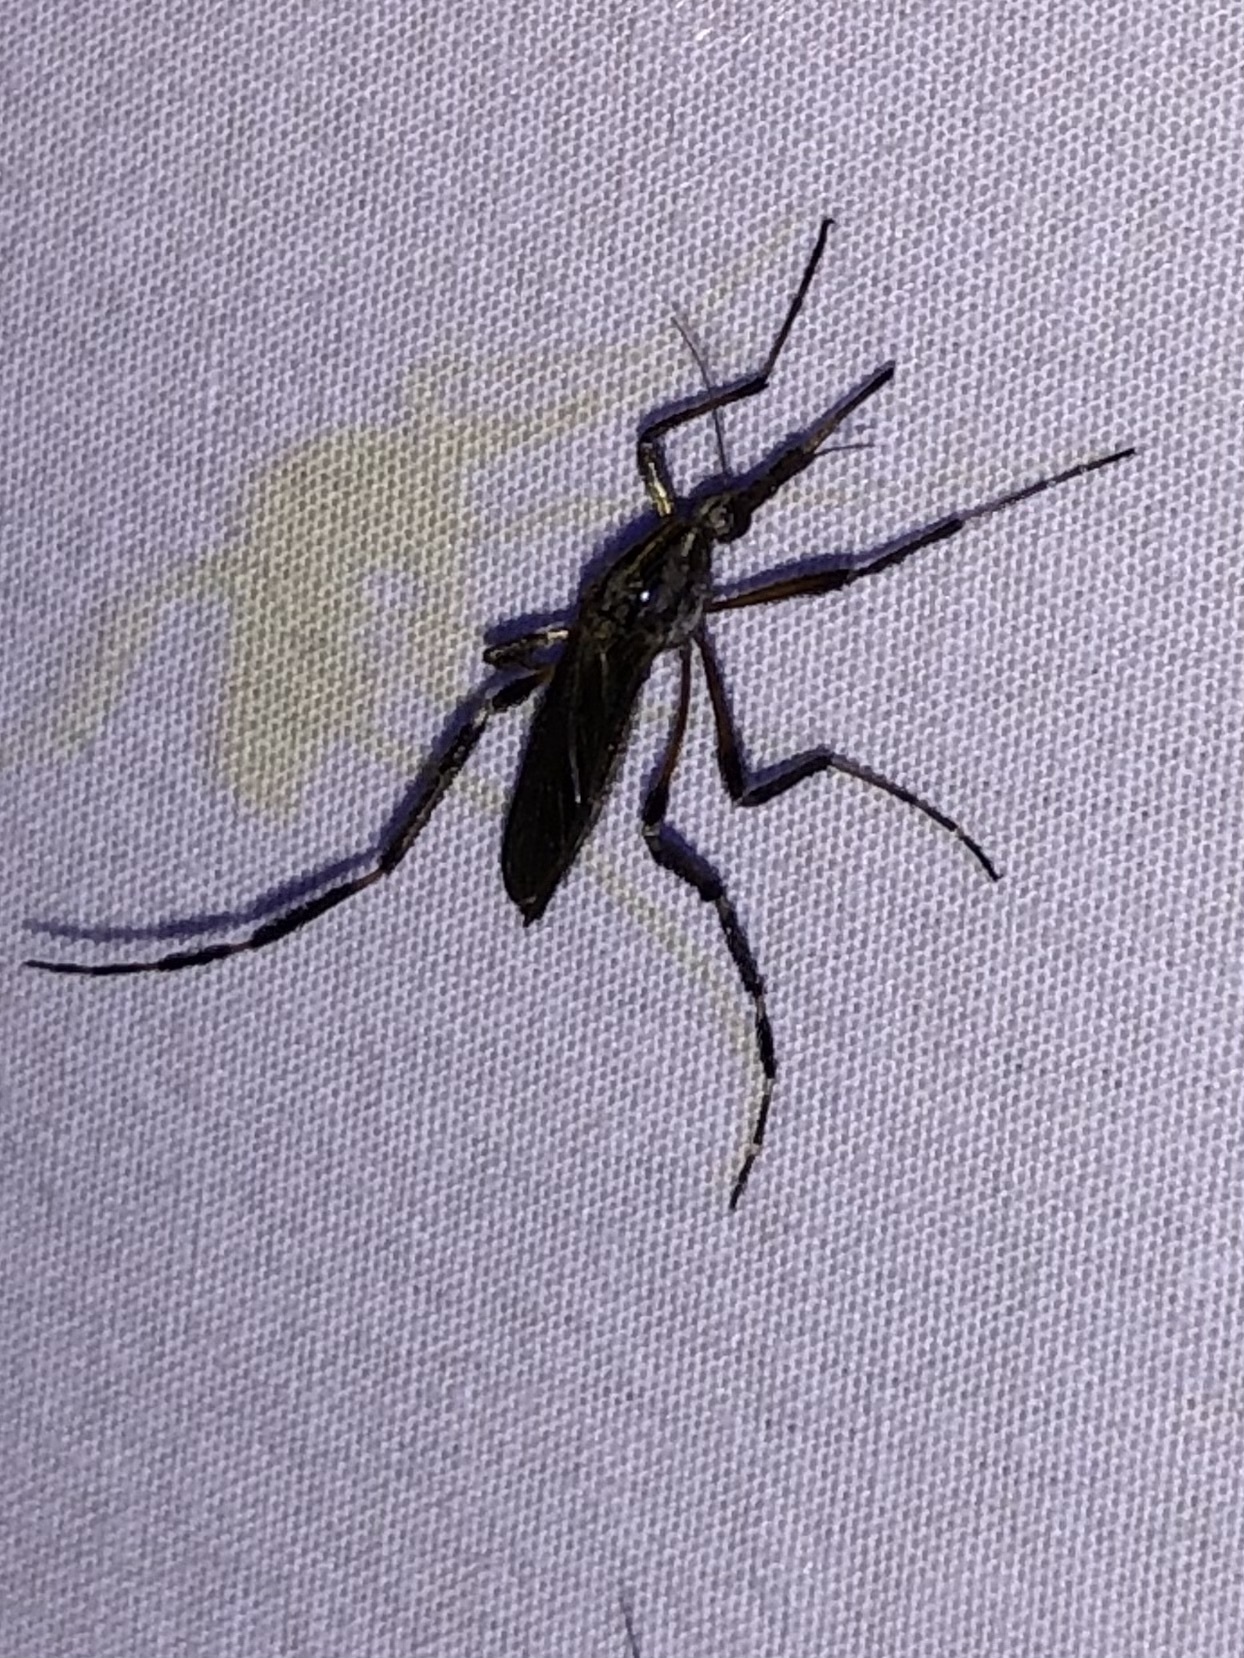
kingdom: Animalia
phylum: Arthropoda
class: Insecta
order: Diptera
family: Culicidae
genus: Psorophora
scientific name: Psorophora ciliata
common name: Gallinipper
